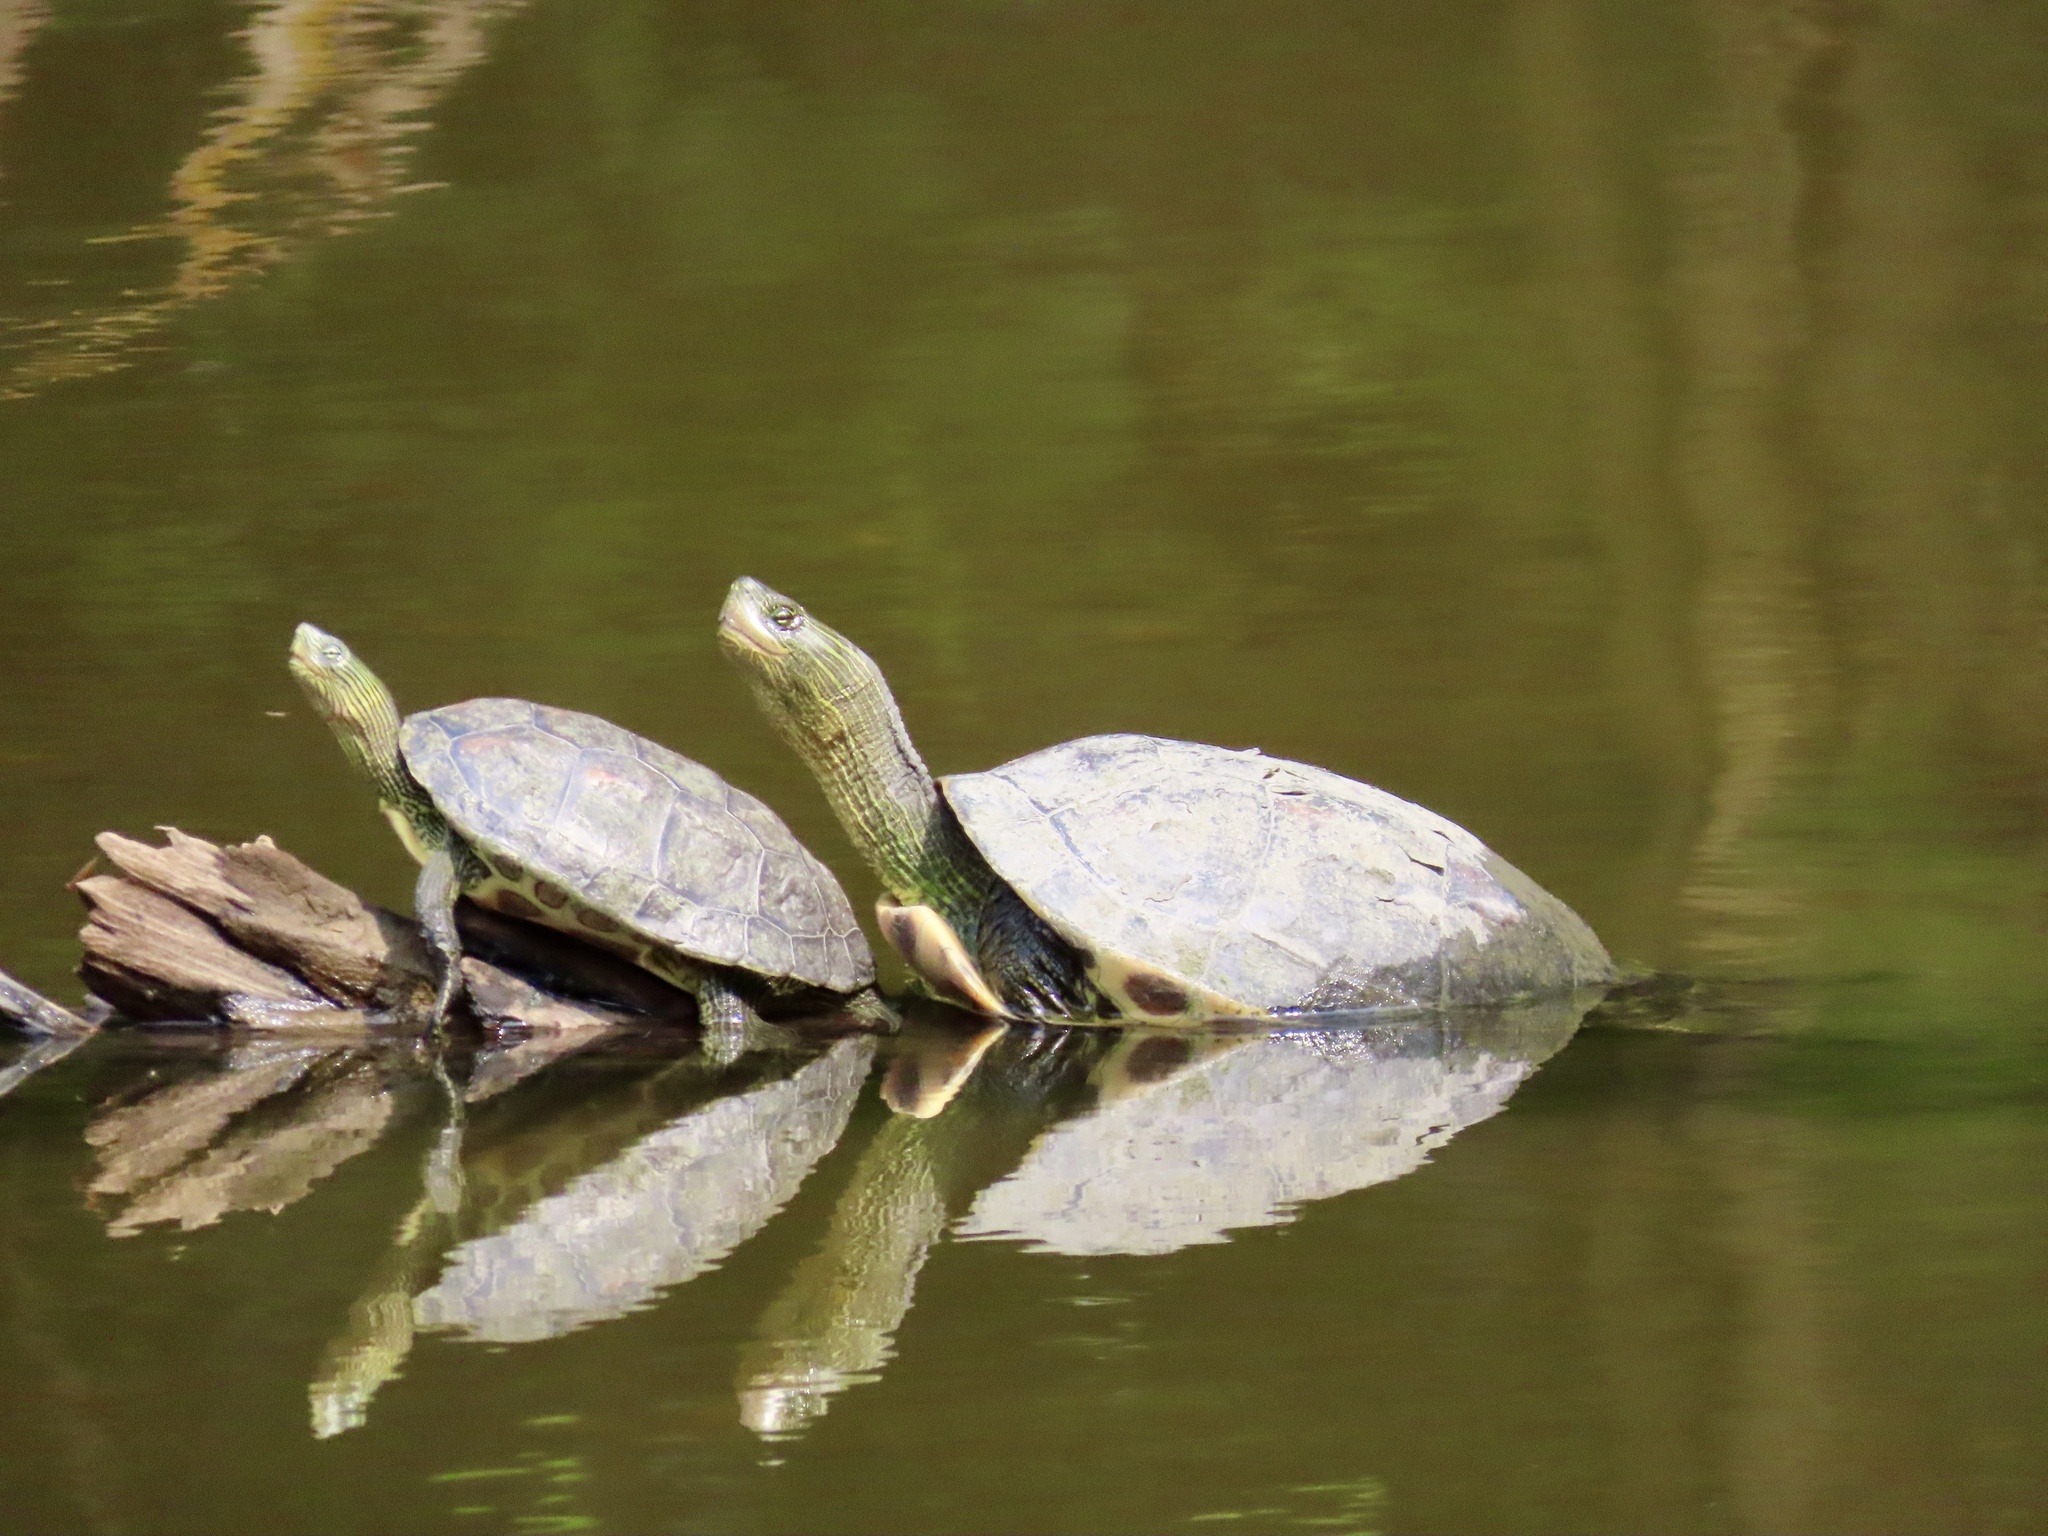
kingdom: Animalia
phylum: Chordata
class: Testudines
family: Geoemydidae
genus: Mauremys
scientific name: Mauremys sinensis
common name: Chinese stripe-necked turtle
